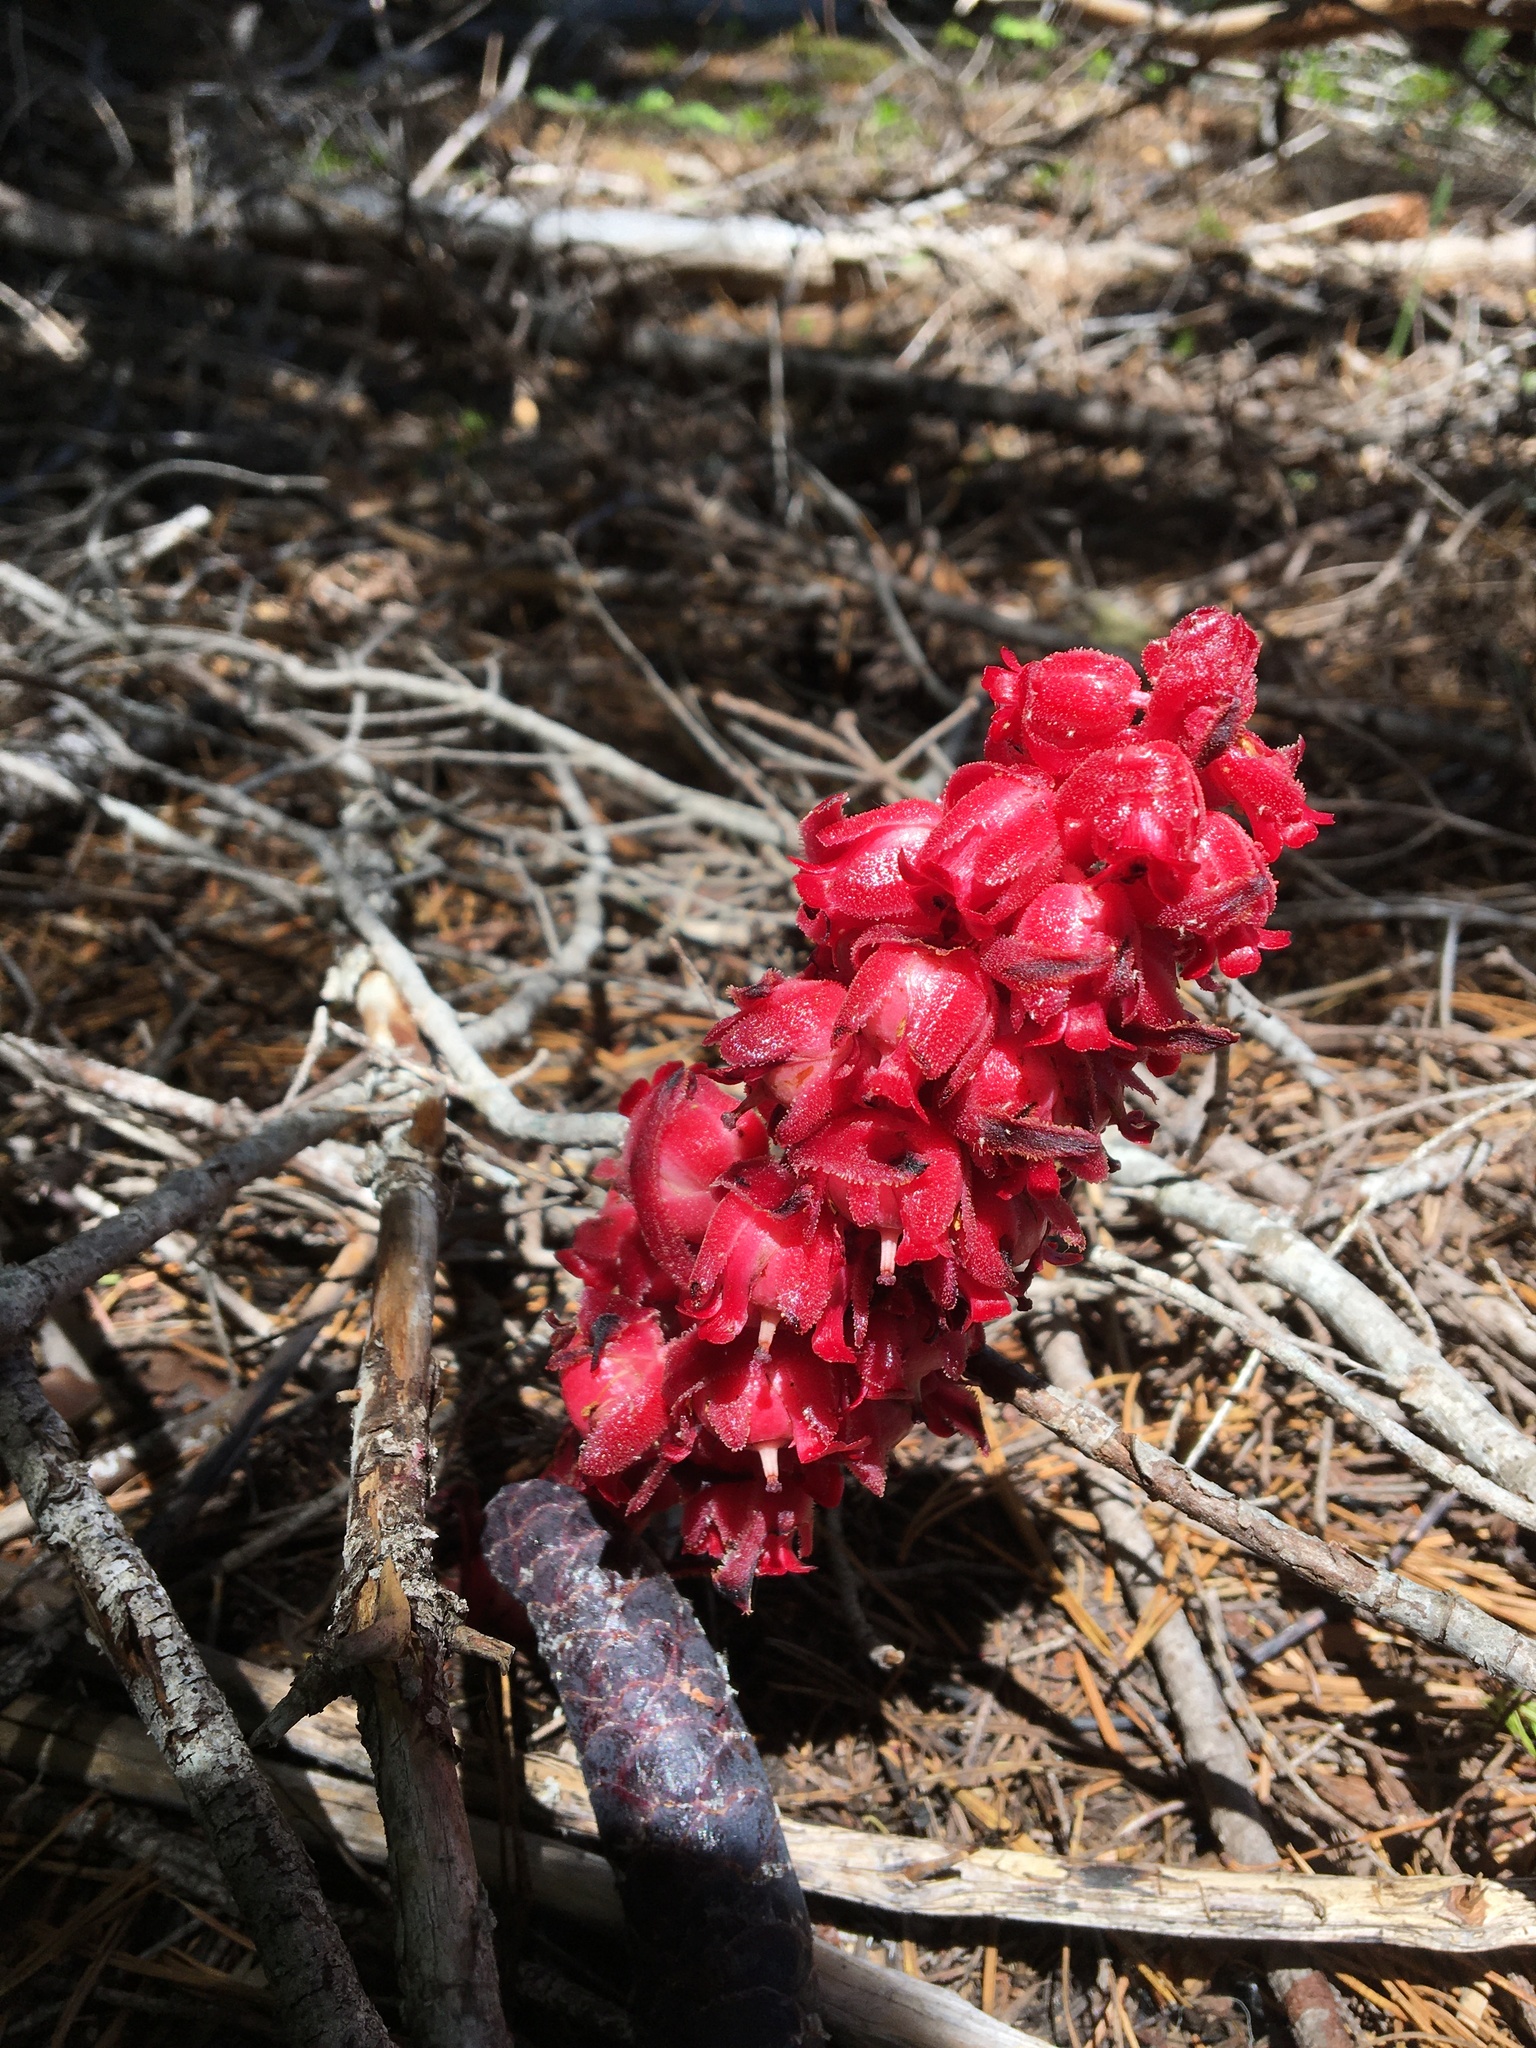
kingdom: Plantae
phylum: Tracheophyta
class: Magnoliopsida
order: Ericales
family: Ericaceae
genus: Sarcodes
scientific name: Sarcodes sanguinea
